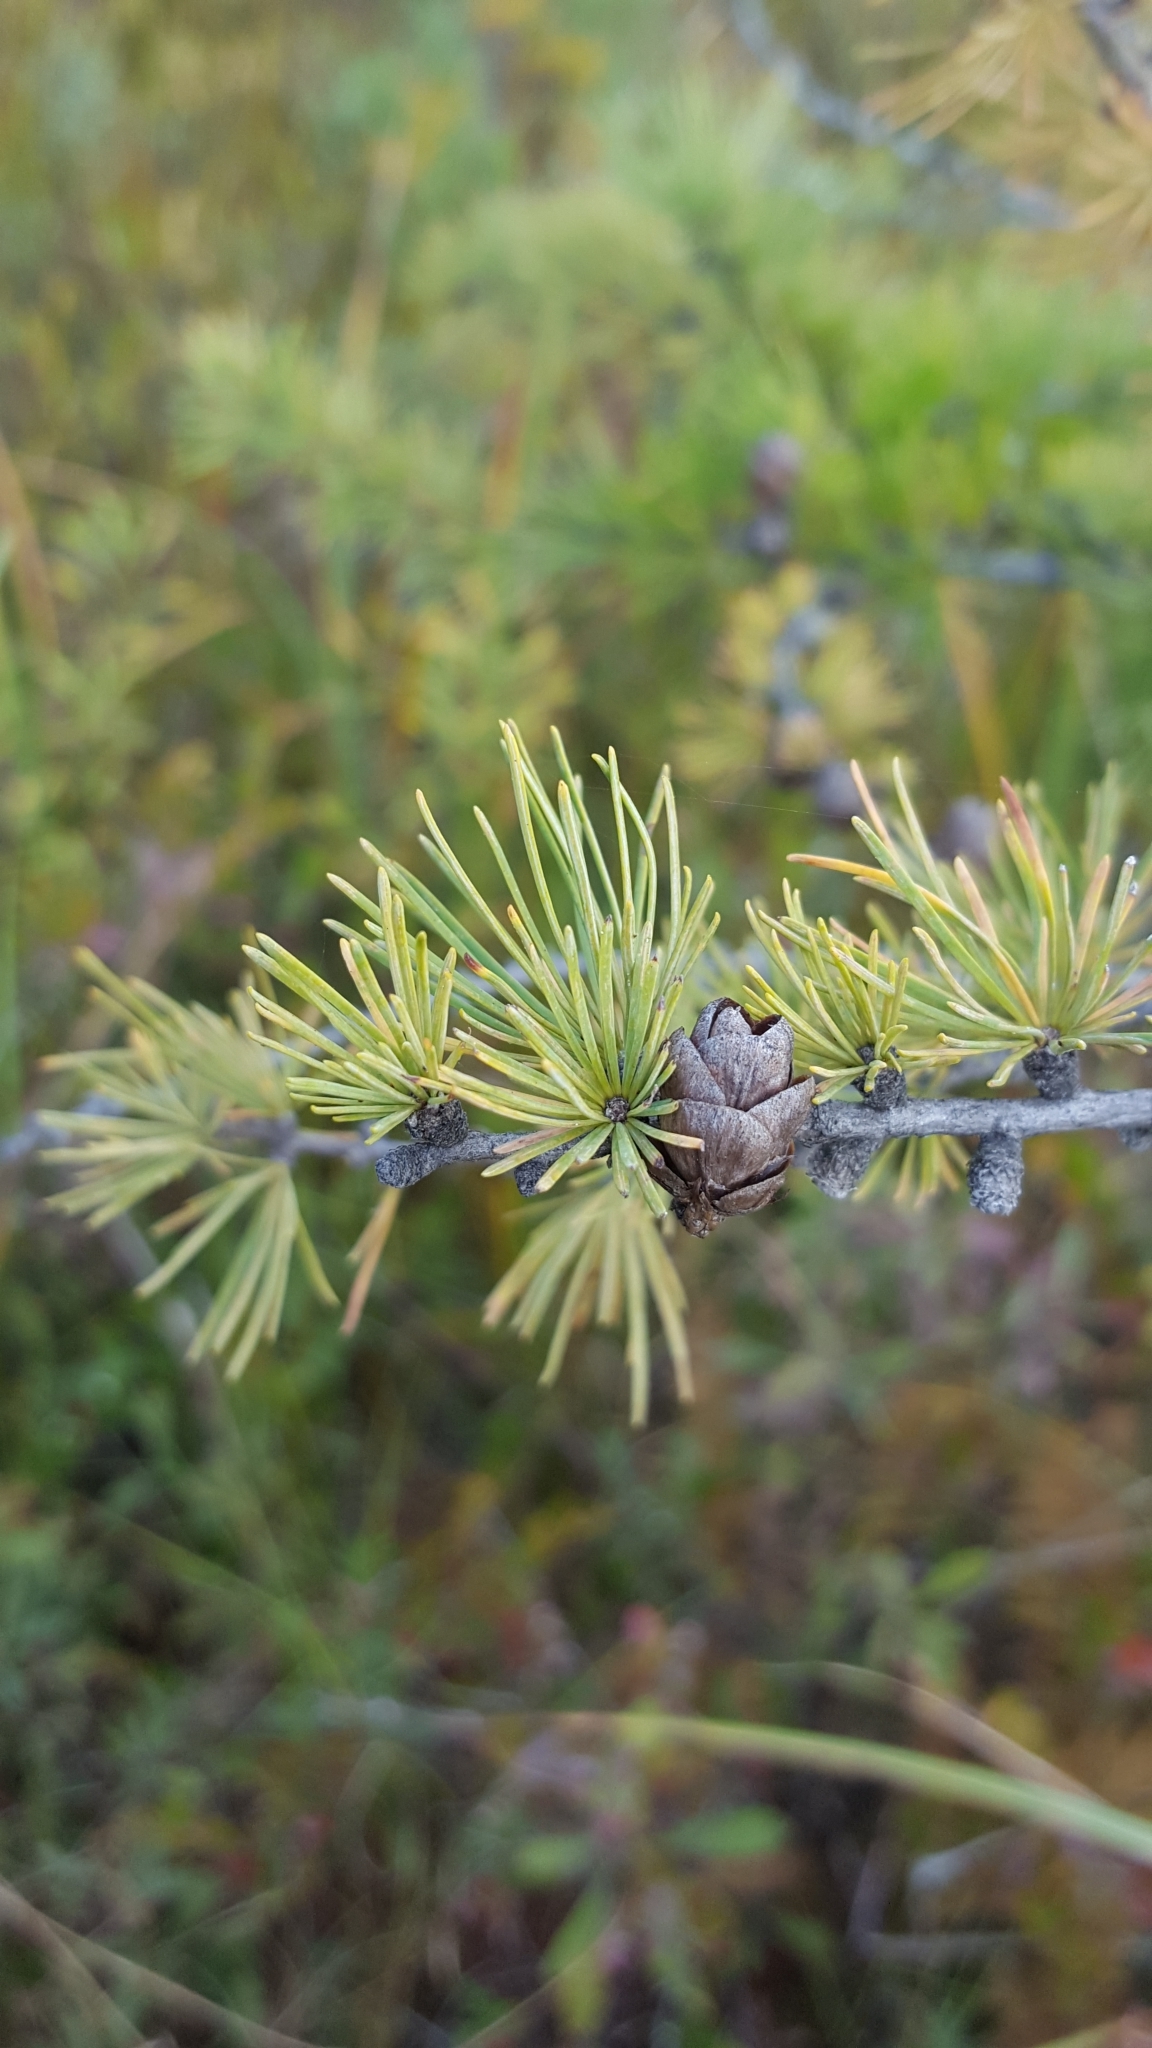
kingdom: Plantae
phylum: Tracheophyta
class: Pinopsida
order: Pinales
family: Pinaceae
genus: Larix
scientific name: Larix laricina
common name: American larch
